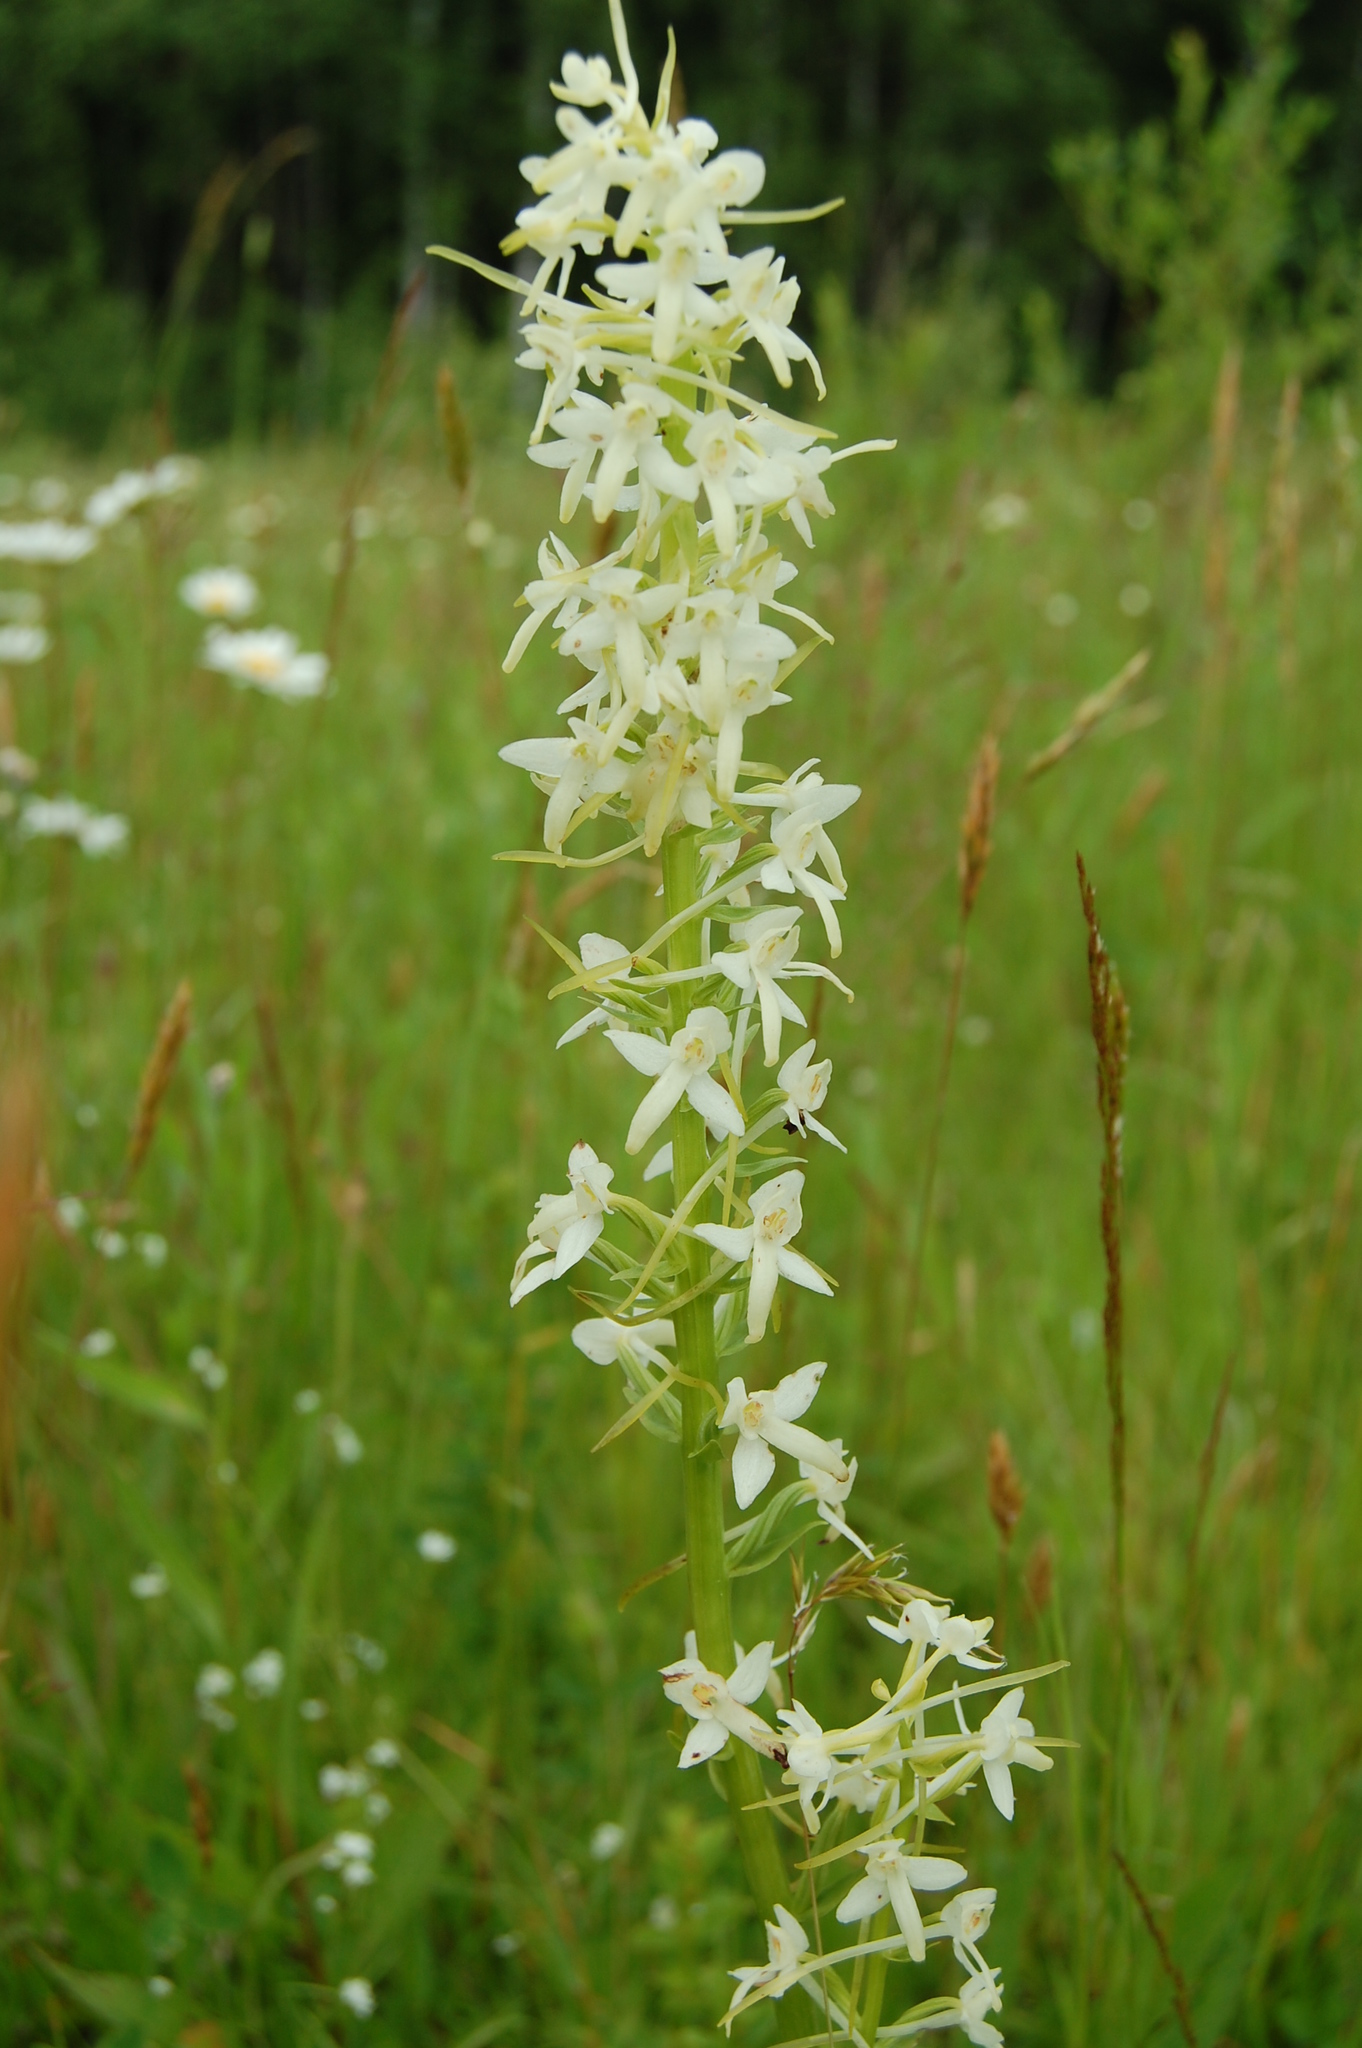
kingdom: Plantae
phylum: Tracheophyta
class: Liliopsida
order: Asparagales
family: Orchidaceae
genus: Platanthera
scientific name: Platanthera bifolia
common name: Lesser butterfly-orchid
